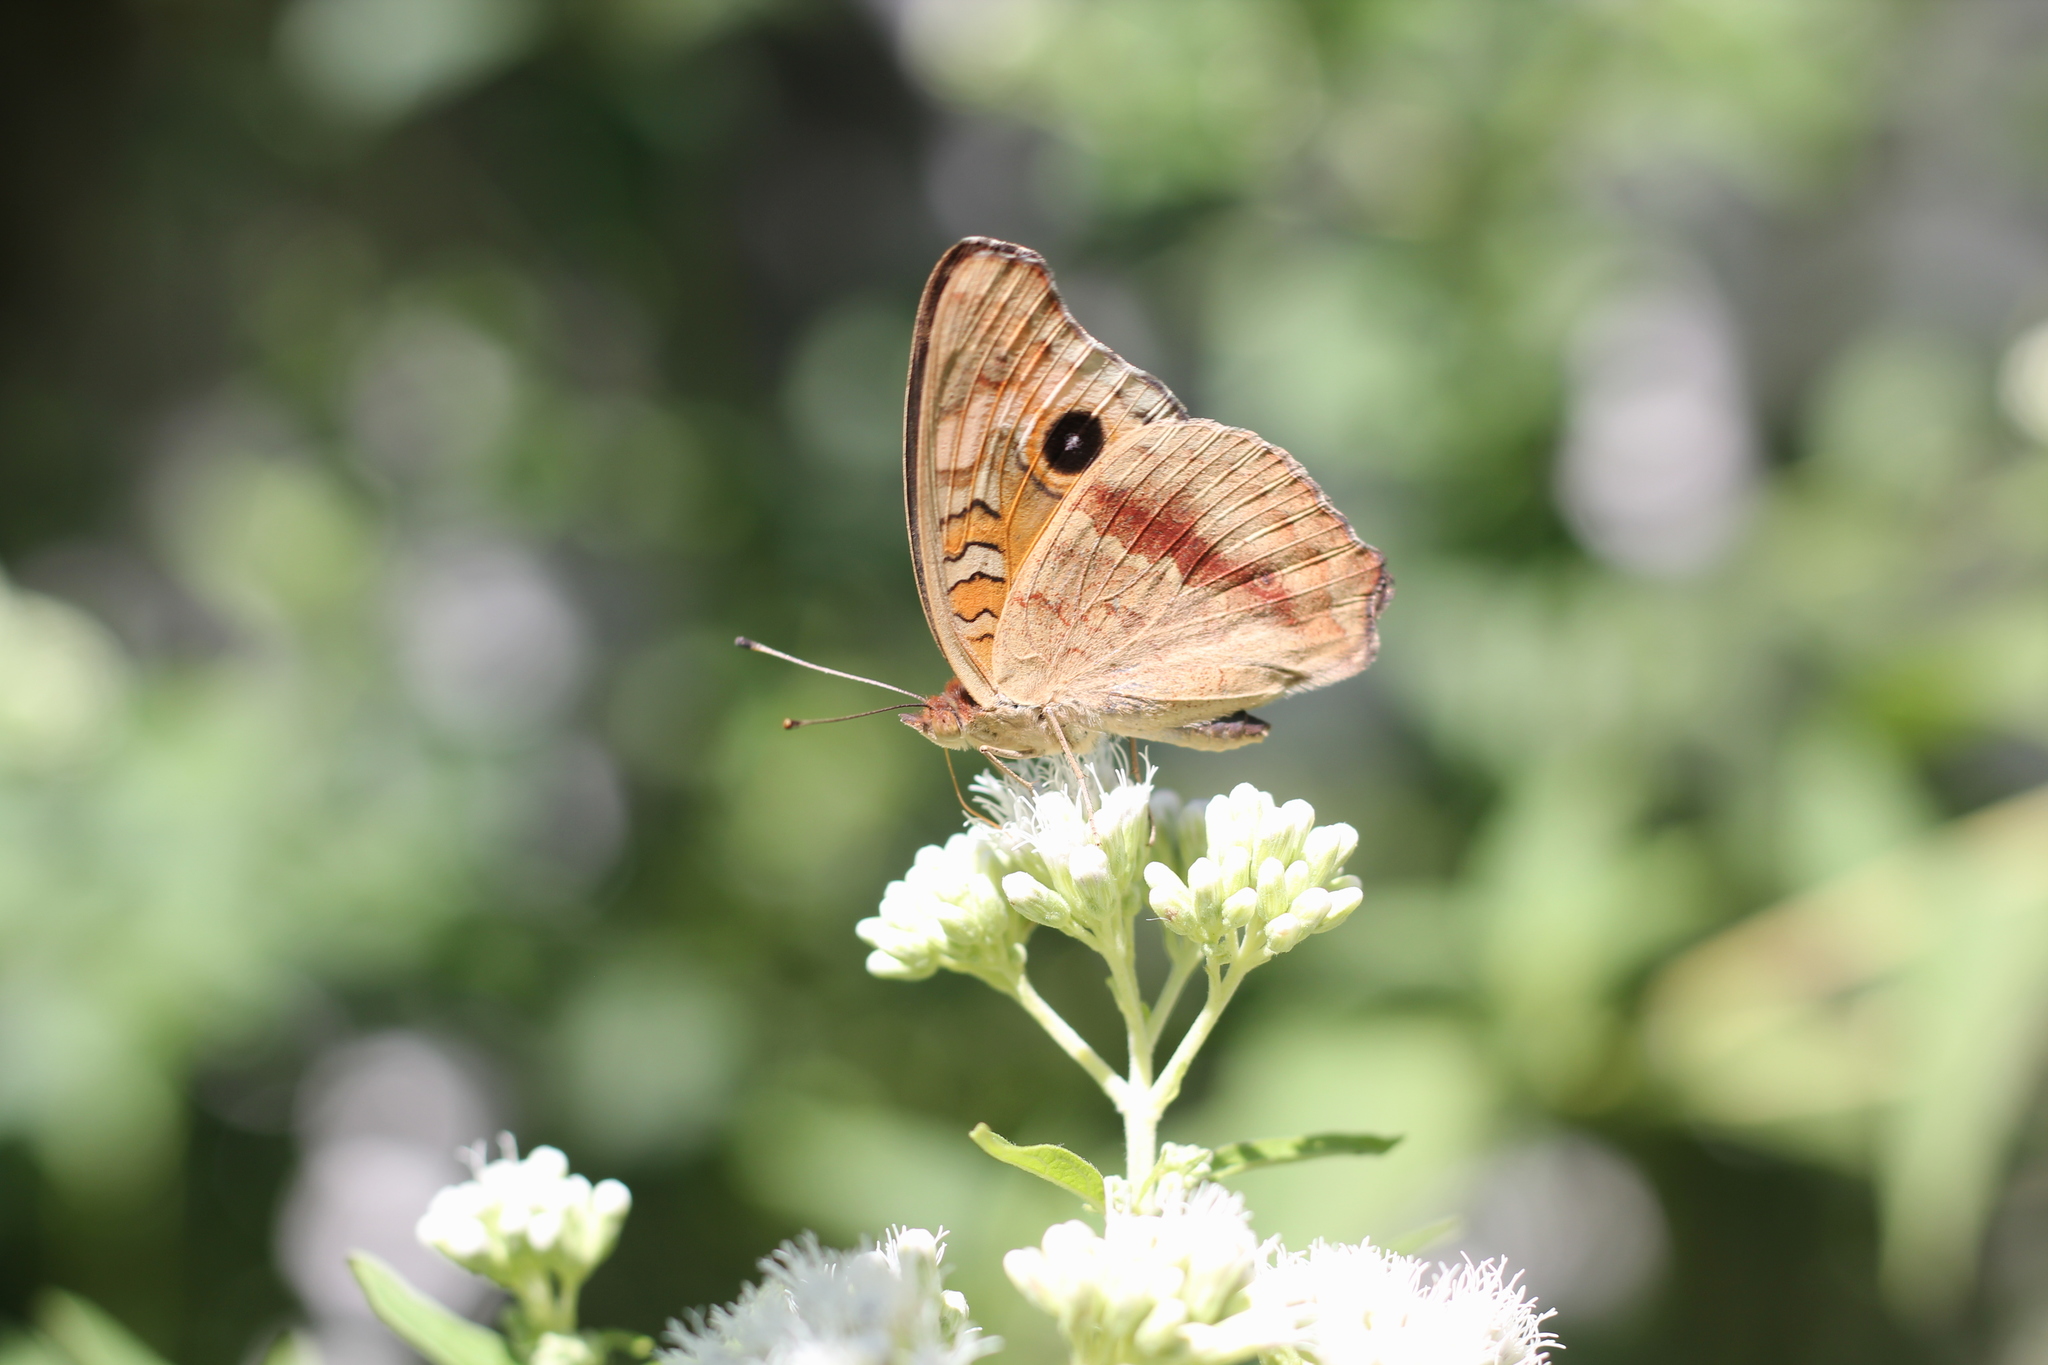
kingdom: Animalia
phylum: Arthropoda
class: Insecta
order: Lepidoptera
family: Nymphalidae
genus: Junonia
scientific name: Junonia lavinia
